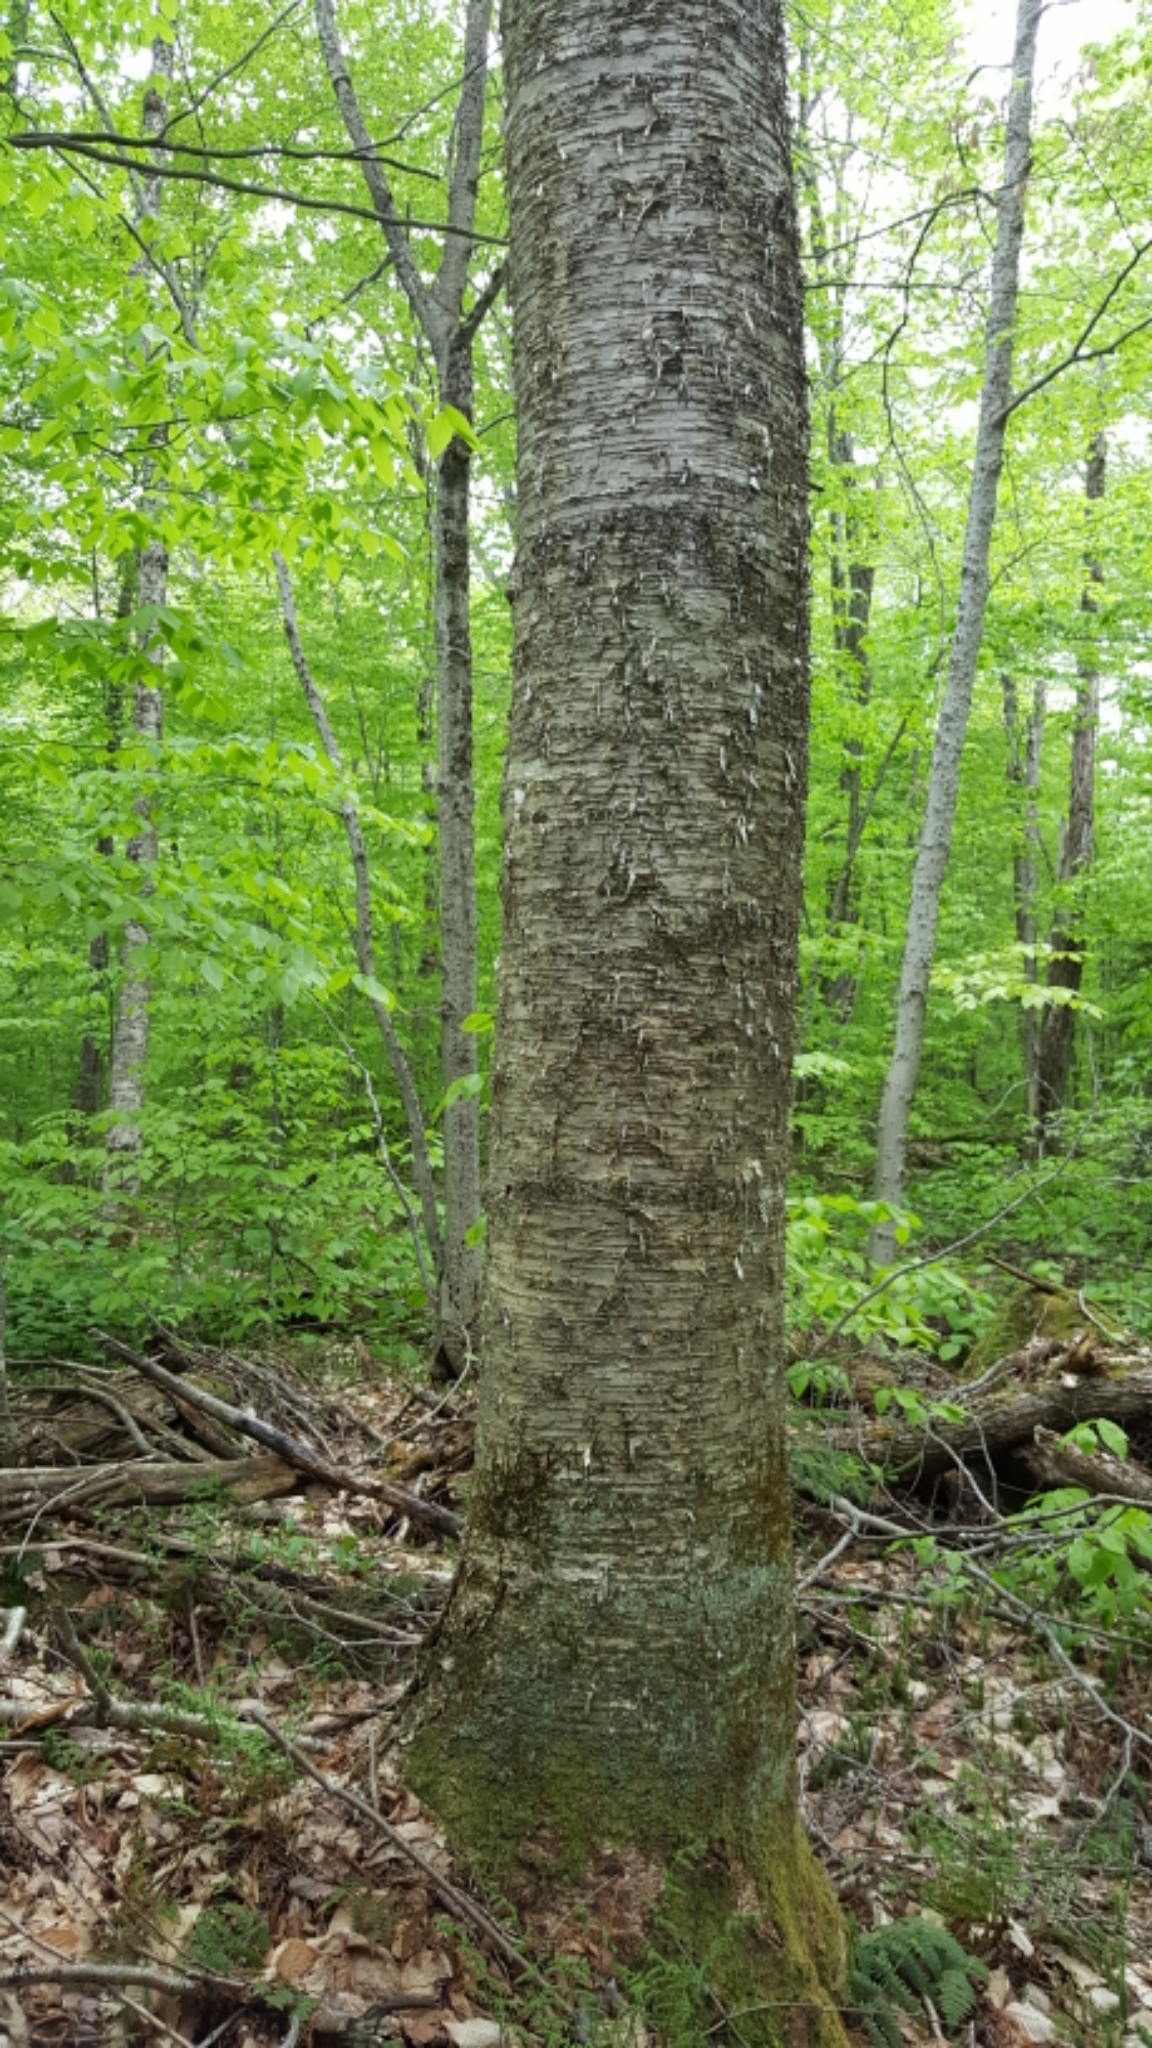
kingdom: Plantae
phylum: Tracheophyta
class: Magnoliopsida
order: Fagales
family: Betulaceae
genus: Betula
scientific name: Betula alleghaniensis
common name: Yellow birch
